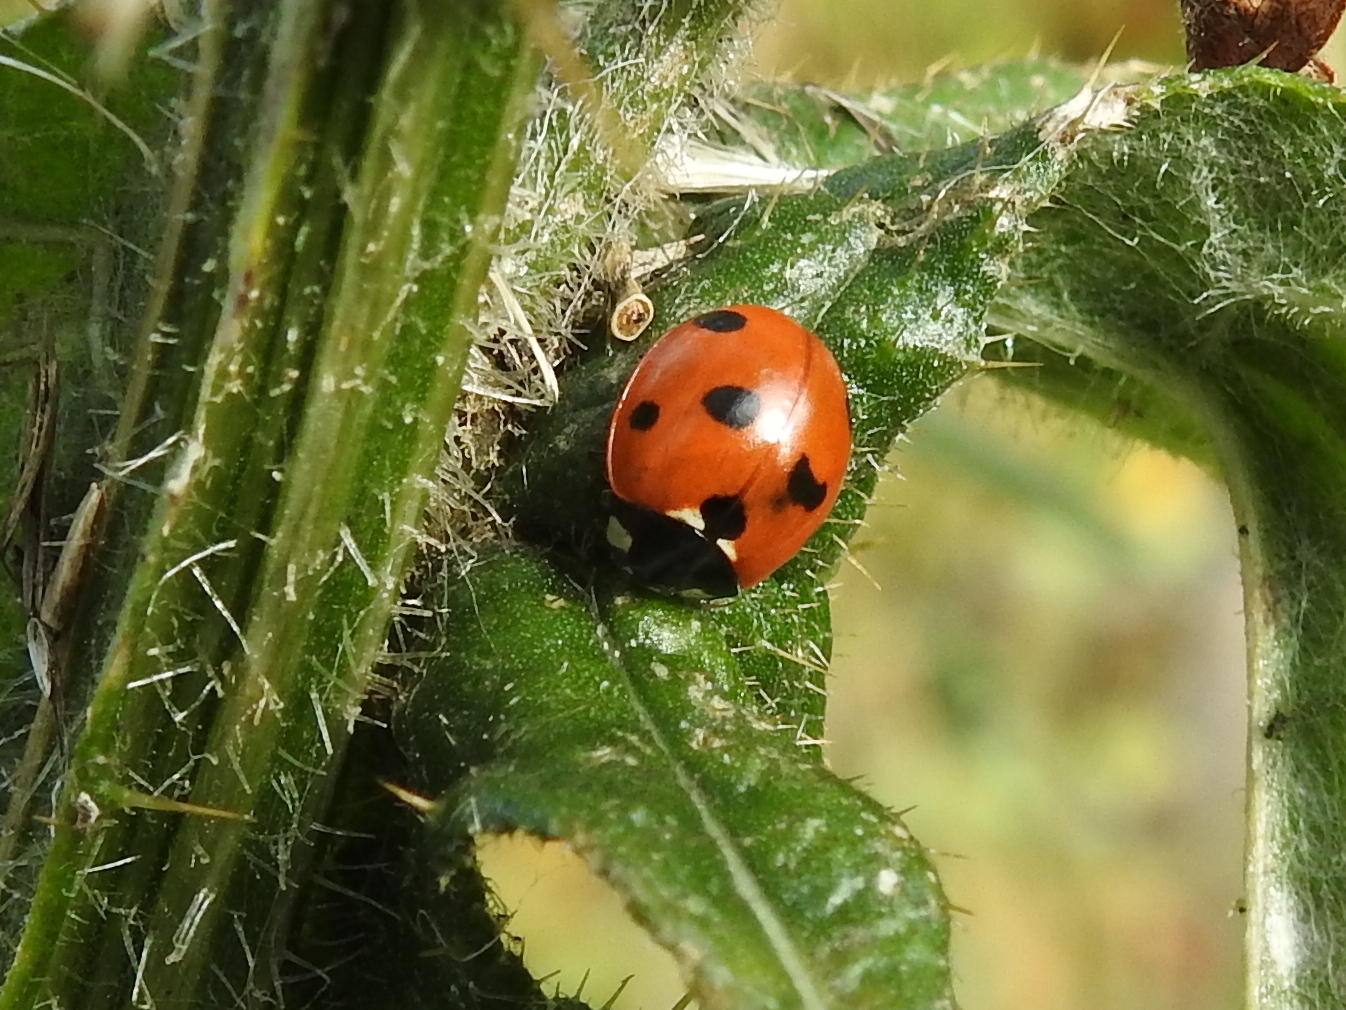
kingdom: Animalia
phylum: Arthropoda
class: Insecta
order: Coleoptera
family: Coccinellidae
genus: Coccinella
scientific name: Coccinella septempunctata
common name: Sevenspotted lady beetle
